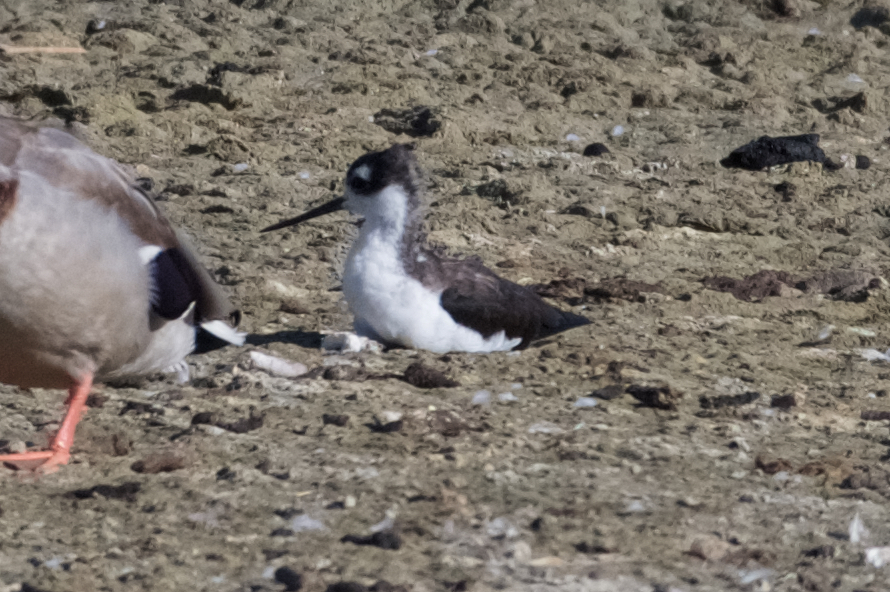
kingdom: Animalia
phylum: Chordata
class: Aves
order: Charadriiformes
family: Recurvirostridae
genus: Himantopus
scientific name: Himantopus mexicanus
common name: Black-necked stilt
